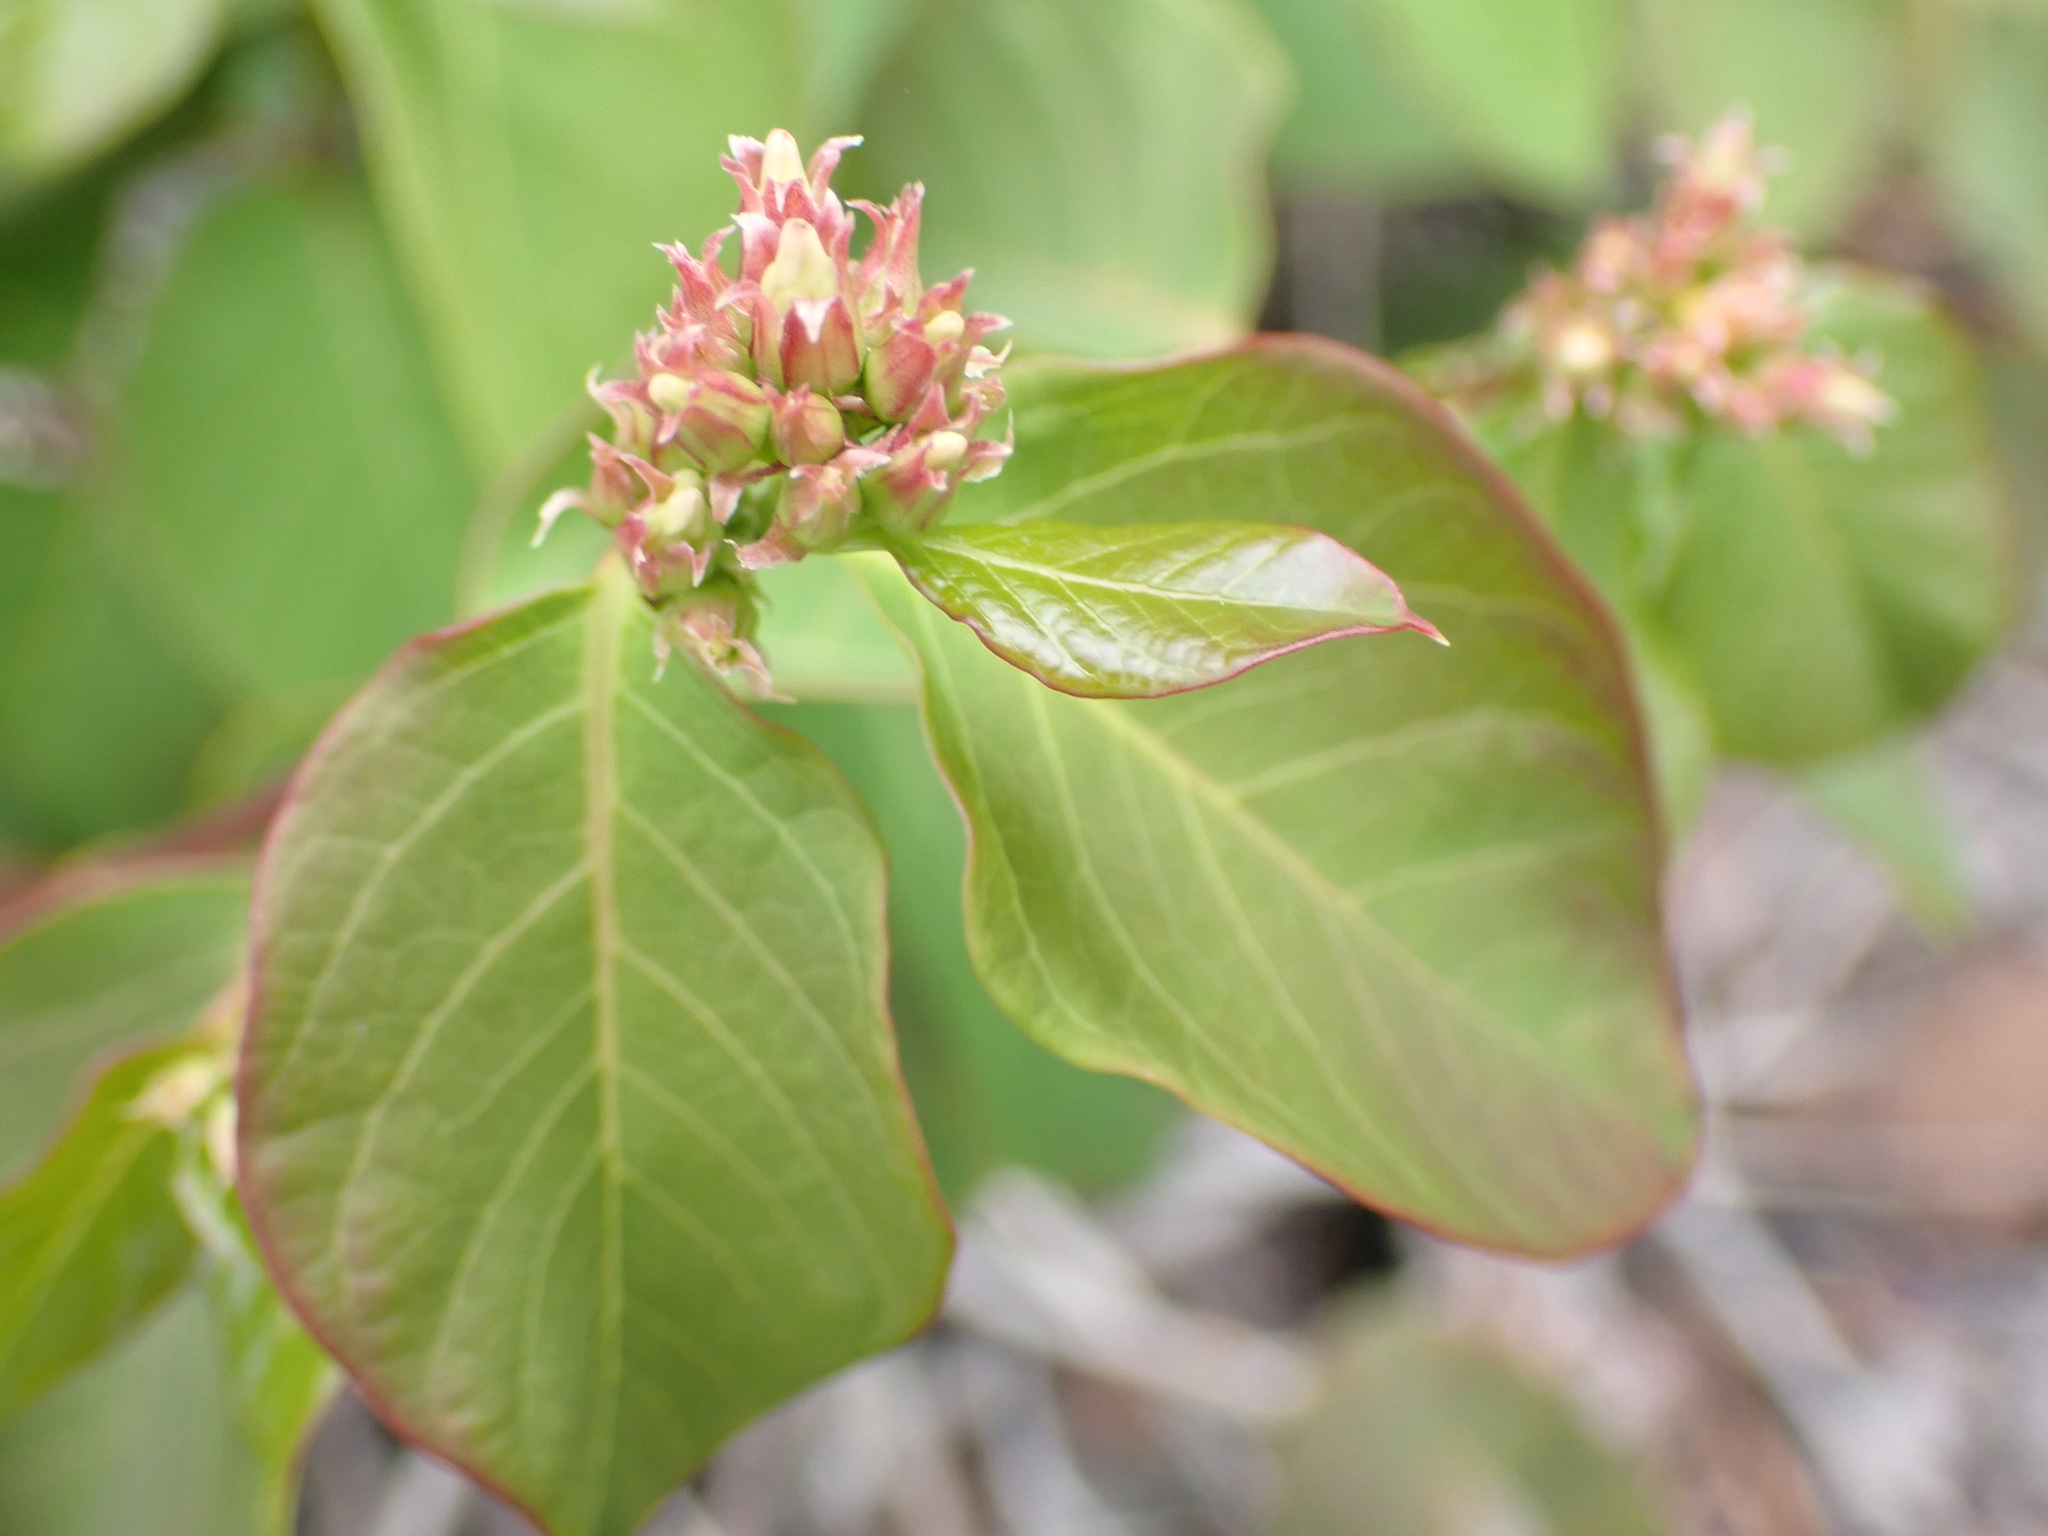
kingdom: Plantae
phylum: Tracheophyta
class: Magnoliopsida
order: Gentianales
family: Apocynaceae
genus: Apocynum
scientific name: Apocynum androsaemifolium
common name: Spreading dogbane
